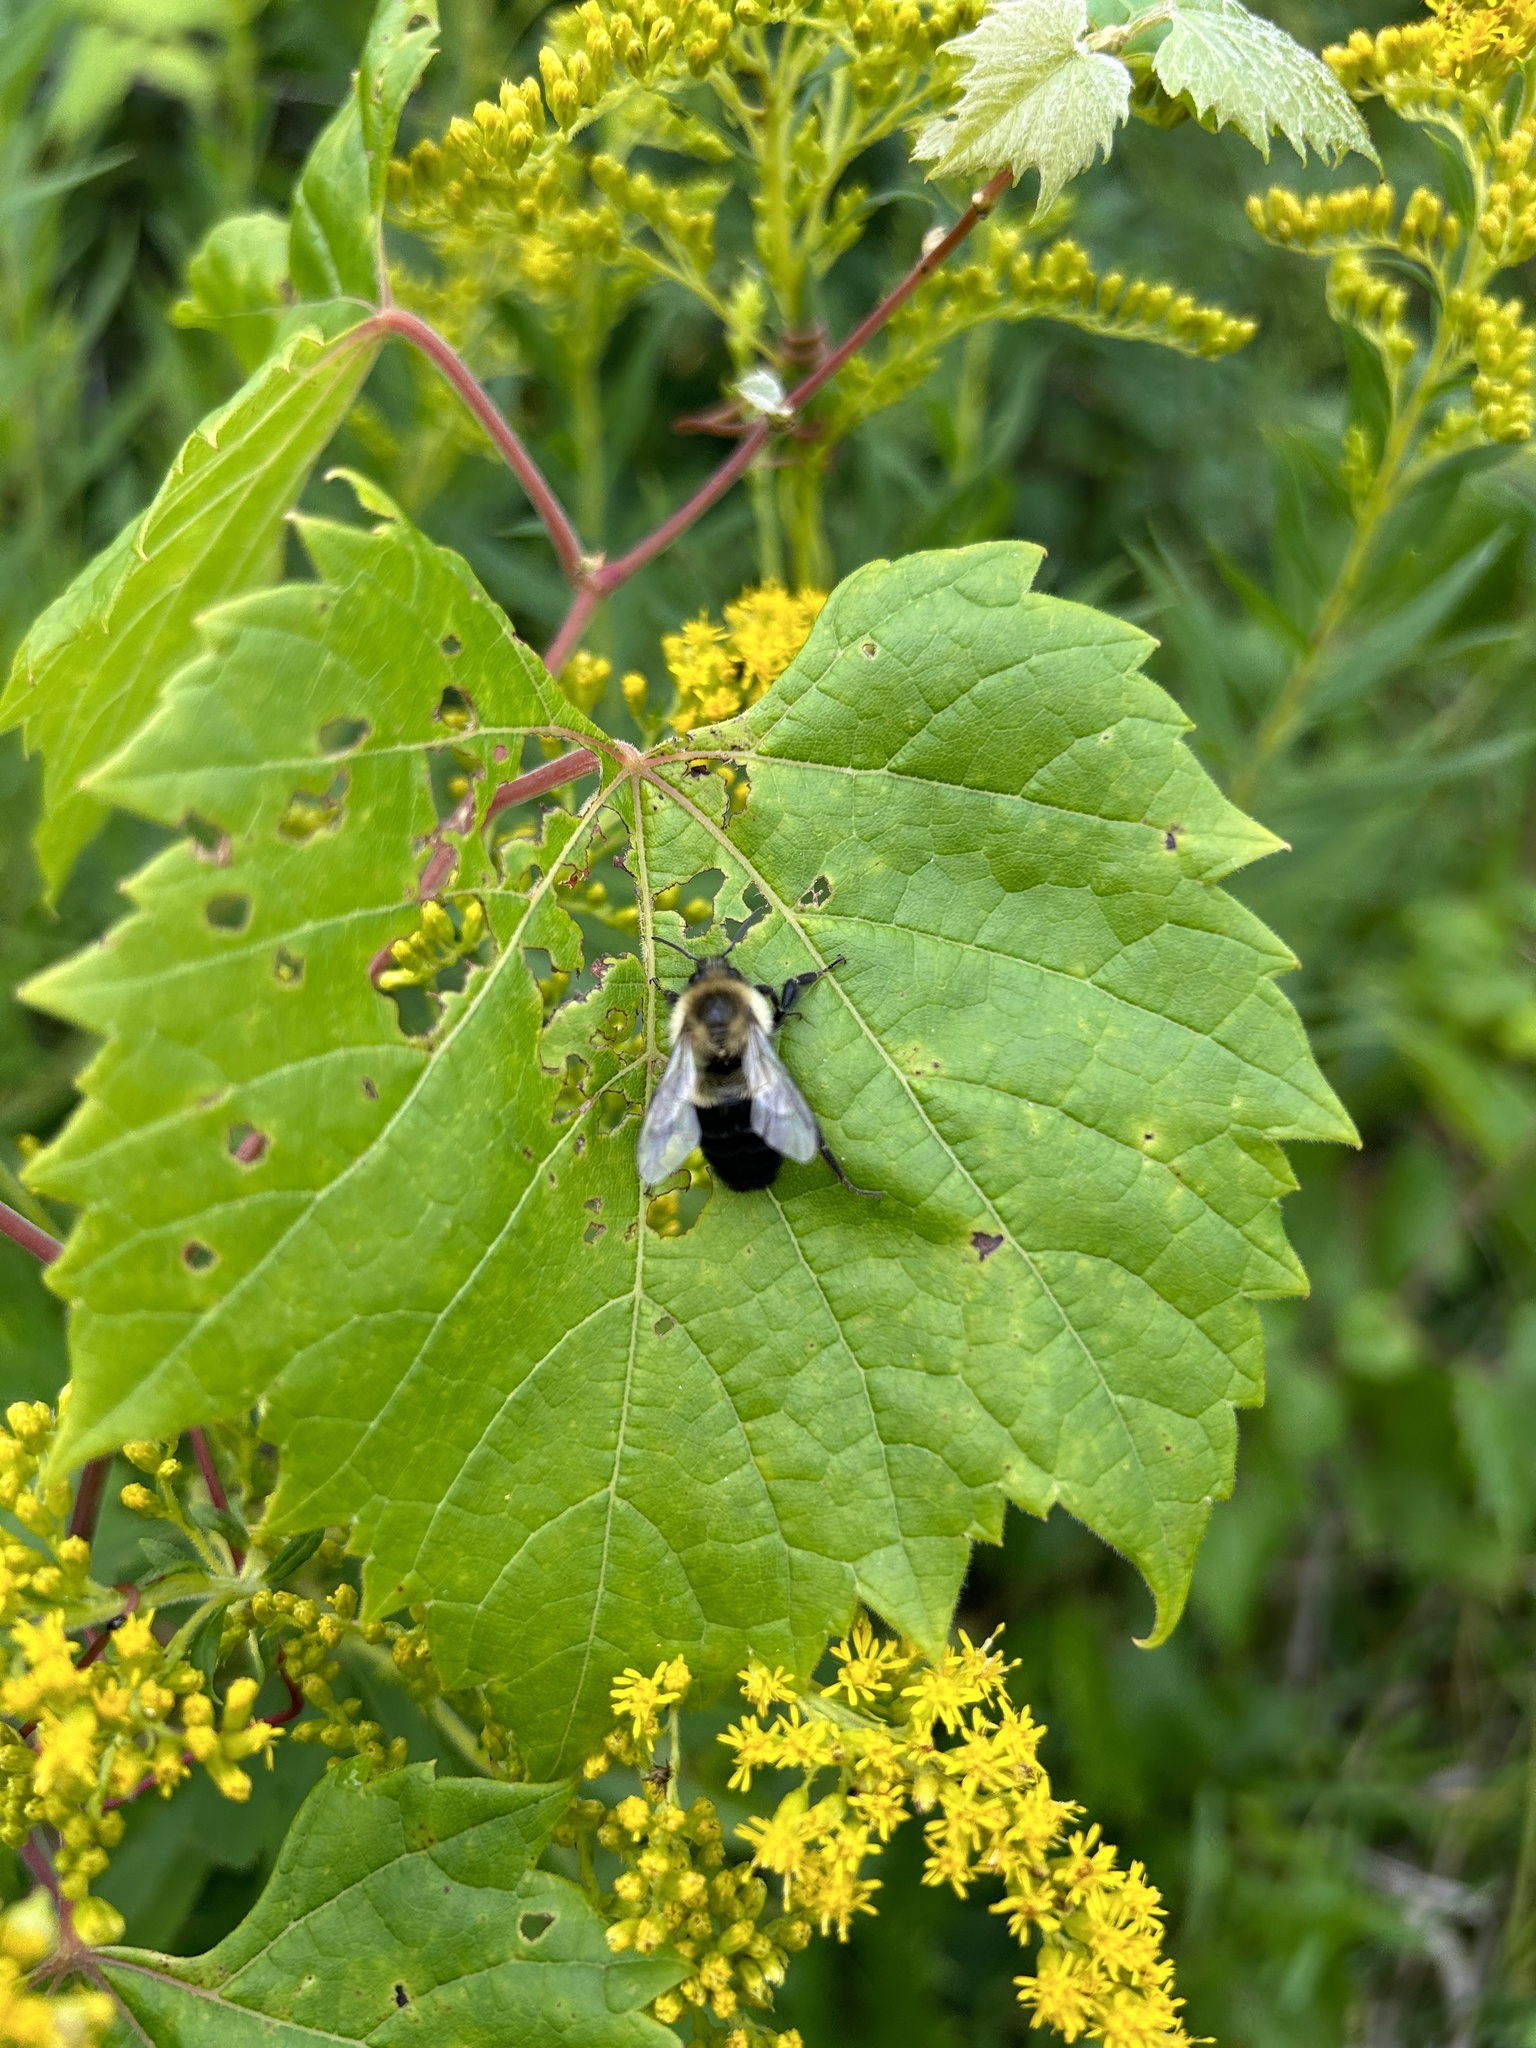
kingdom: Animalia
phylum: Arthropoda
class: Insecta
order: Hymenoptera
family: Apidae
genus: Bombus
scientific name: Bombus impatiens
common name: Common eastern bumble bee
